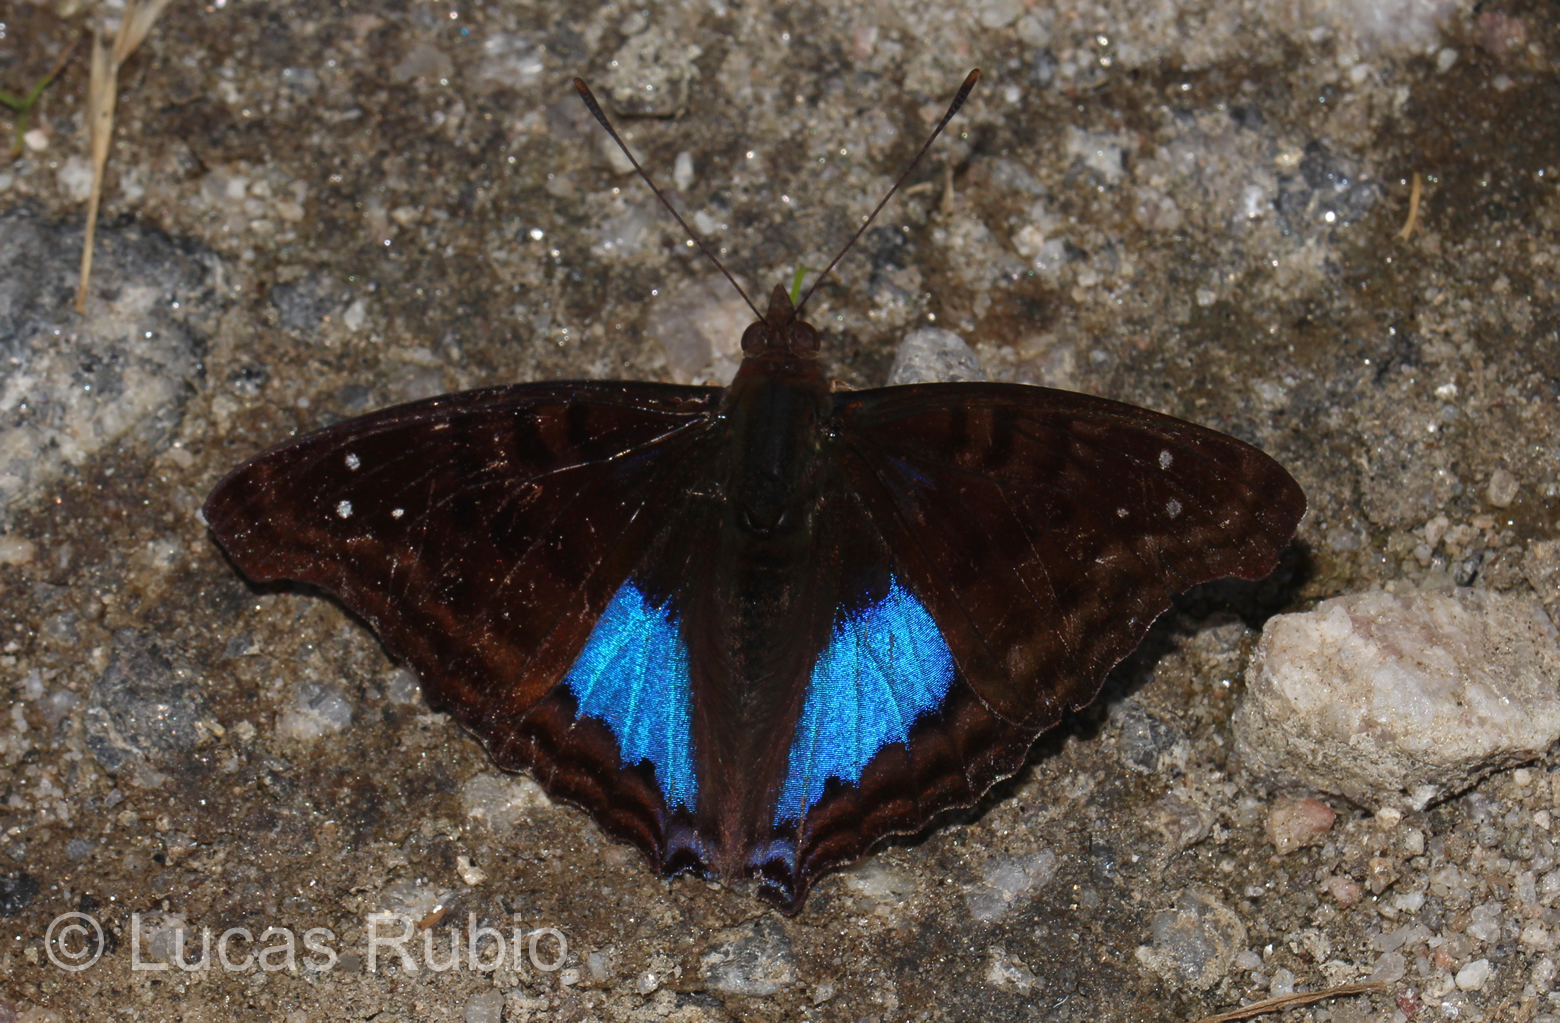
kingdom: Animalia
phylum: Arthropoda
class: Insecta
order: Lepidoptera
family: Nymphalidae
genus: Doxocopa
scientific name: Doxocopa cyane
